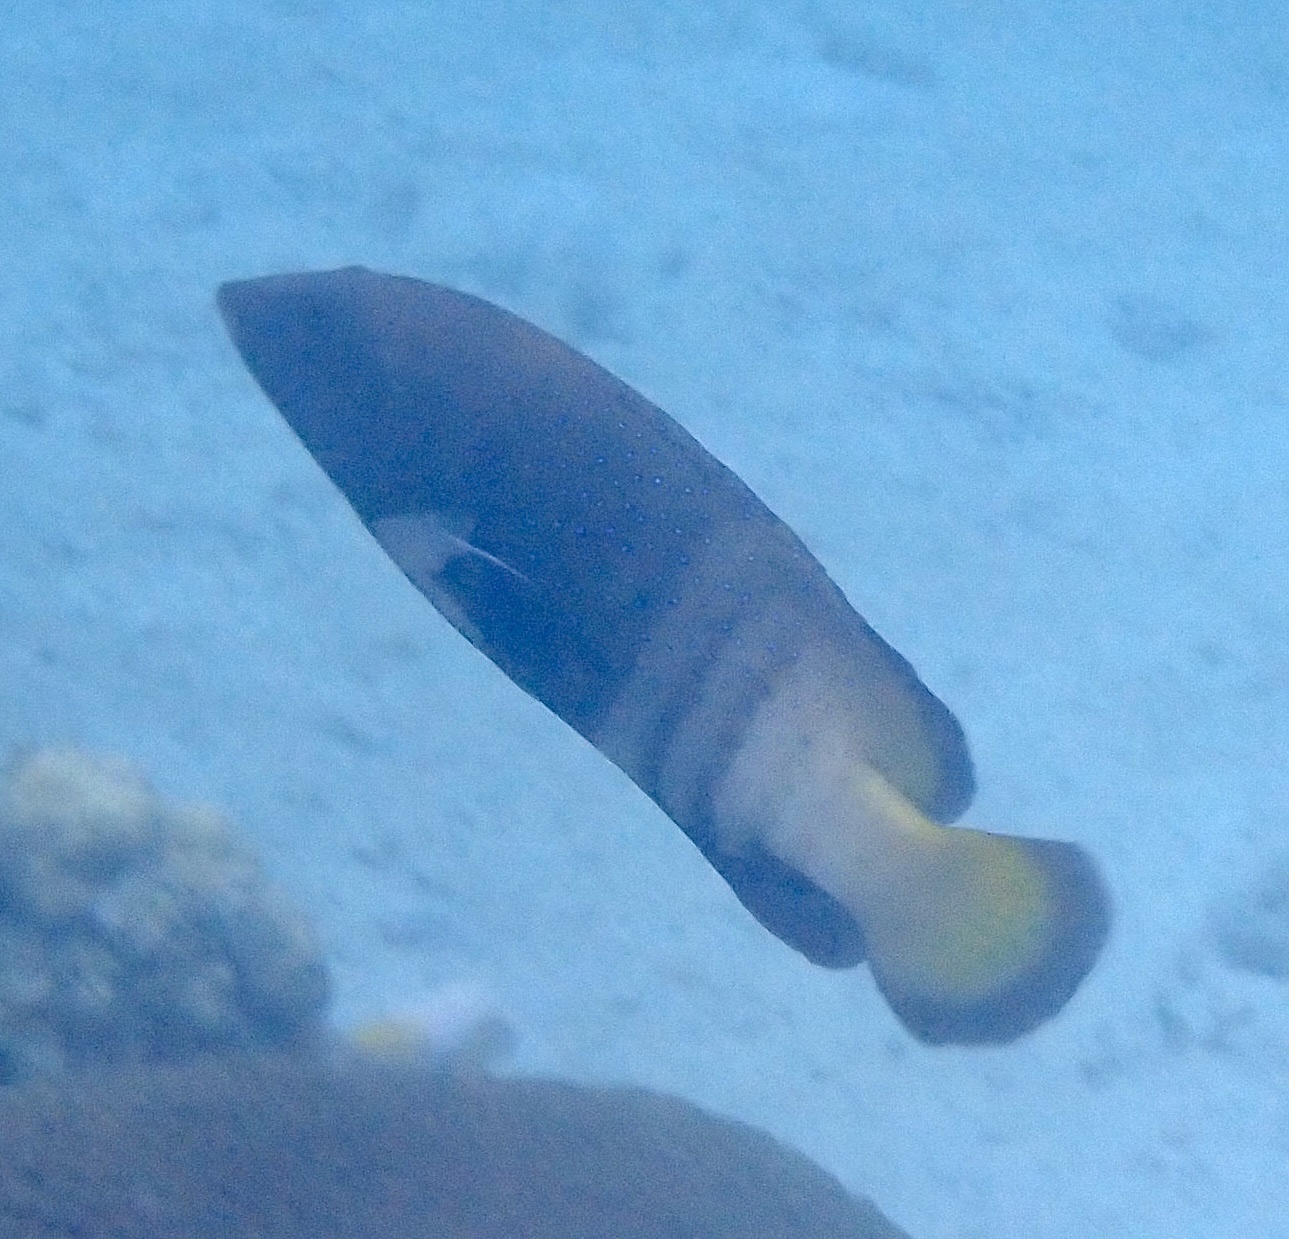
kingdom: Animalia
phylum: Chordata
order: Perciformes
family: Serranidae
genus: Cephalopholis
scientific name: Cephalopholis argus
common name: Peacock grouper
